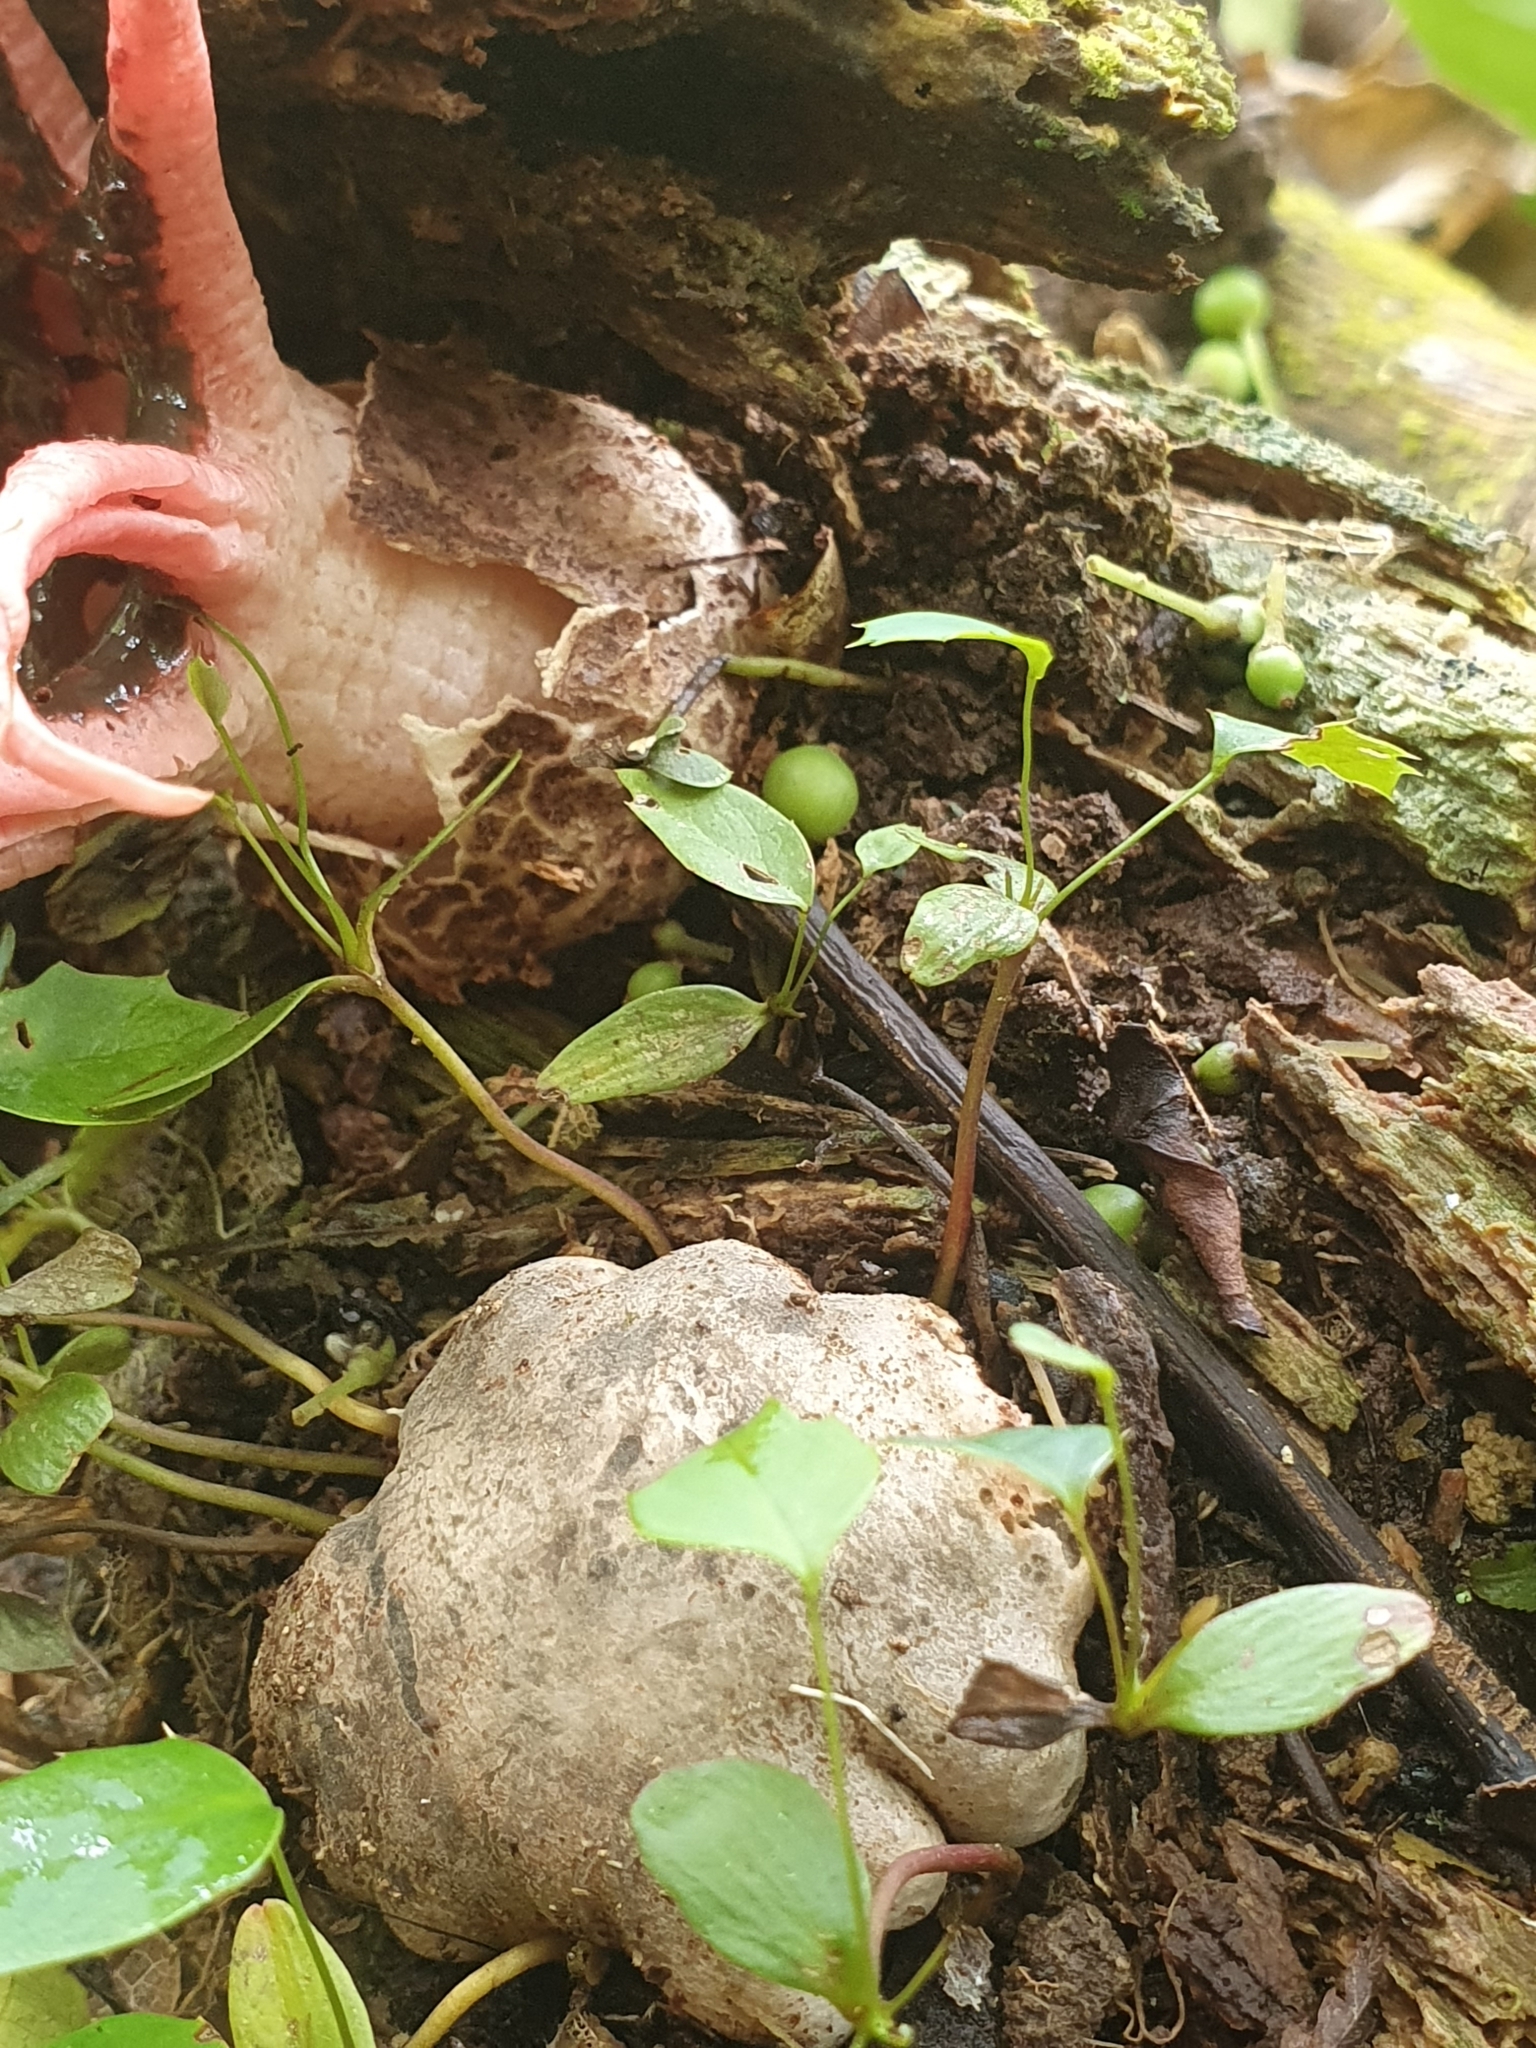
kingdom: Fungi
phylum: Basidiomycota
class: Agaricomycetes
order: Phallales
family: Phallaceae
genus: Aseroe
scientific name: Aseroe rubra
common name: Starfish fungus
